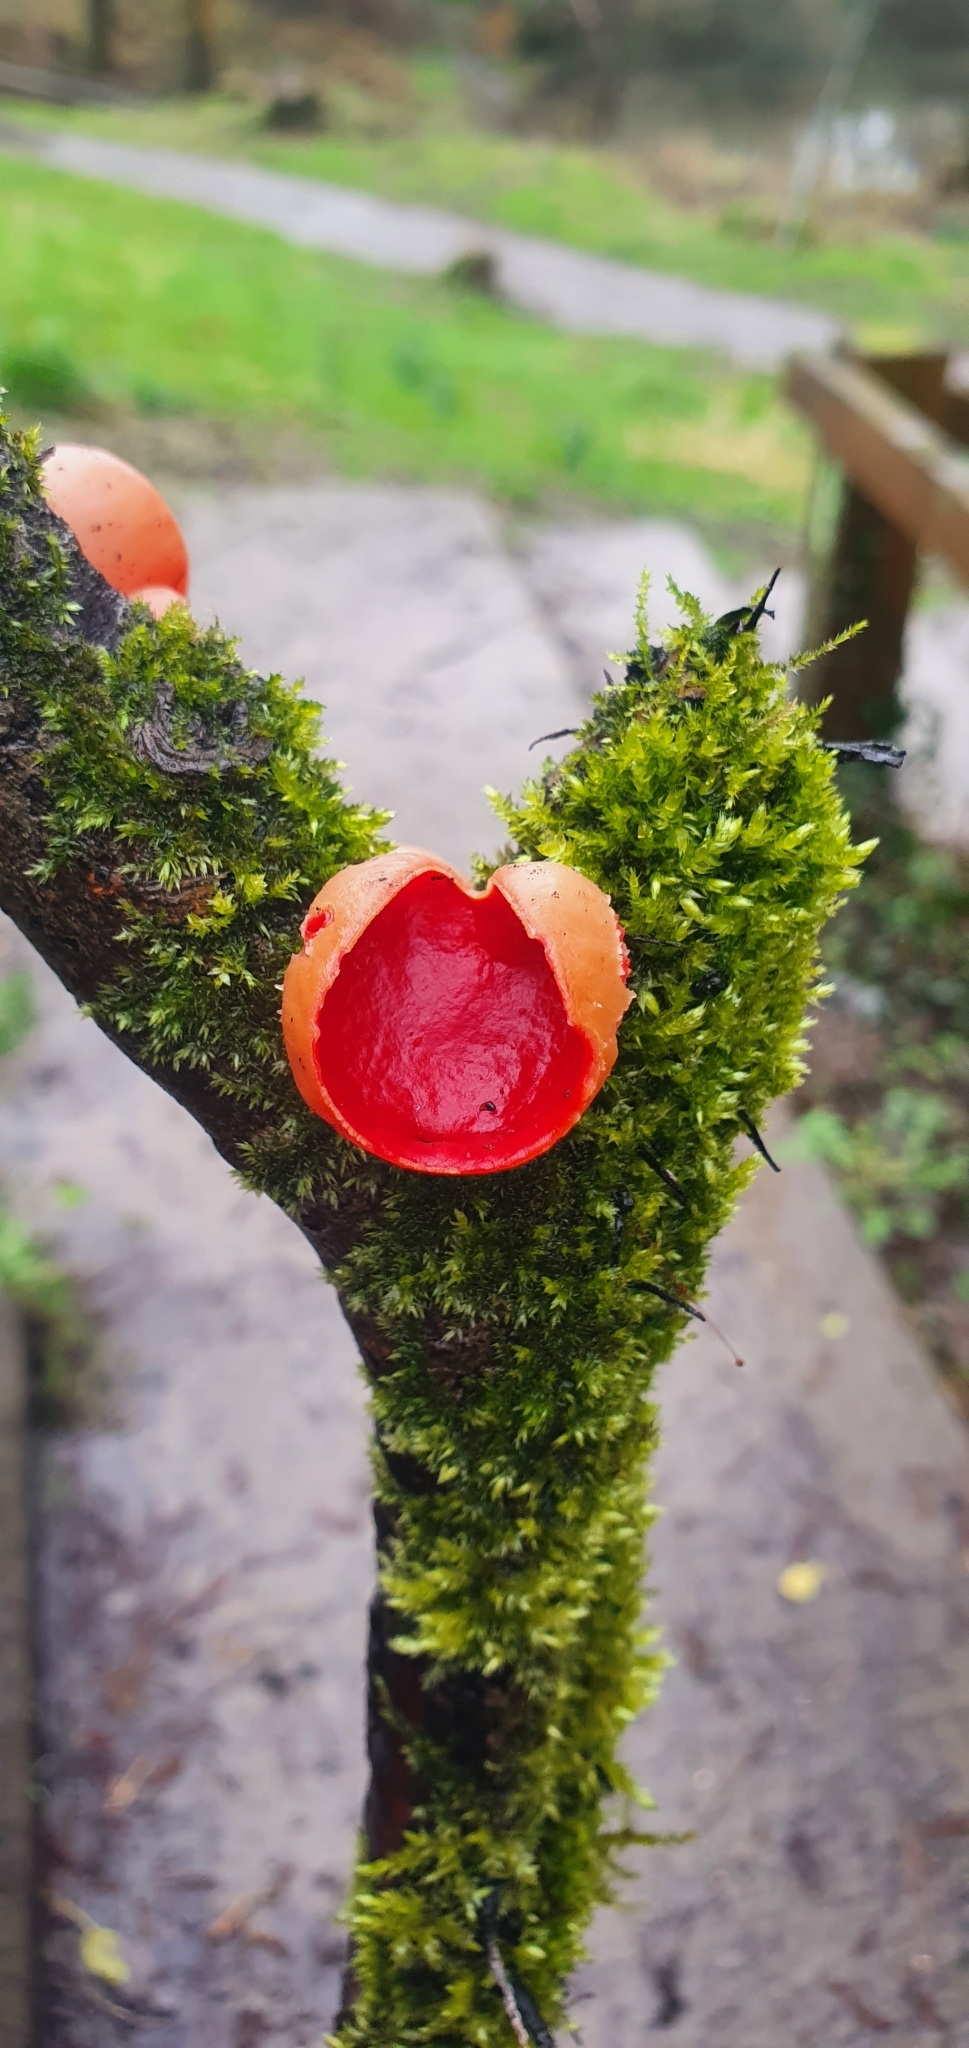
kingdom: Fungi
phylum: Ascomycota
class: Pezizomycetes
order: Pezizales
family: Sarcoscyphaceae
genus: Sarcoscypha
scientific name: Sarcoscypha
